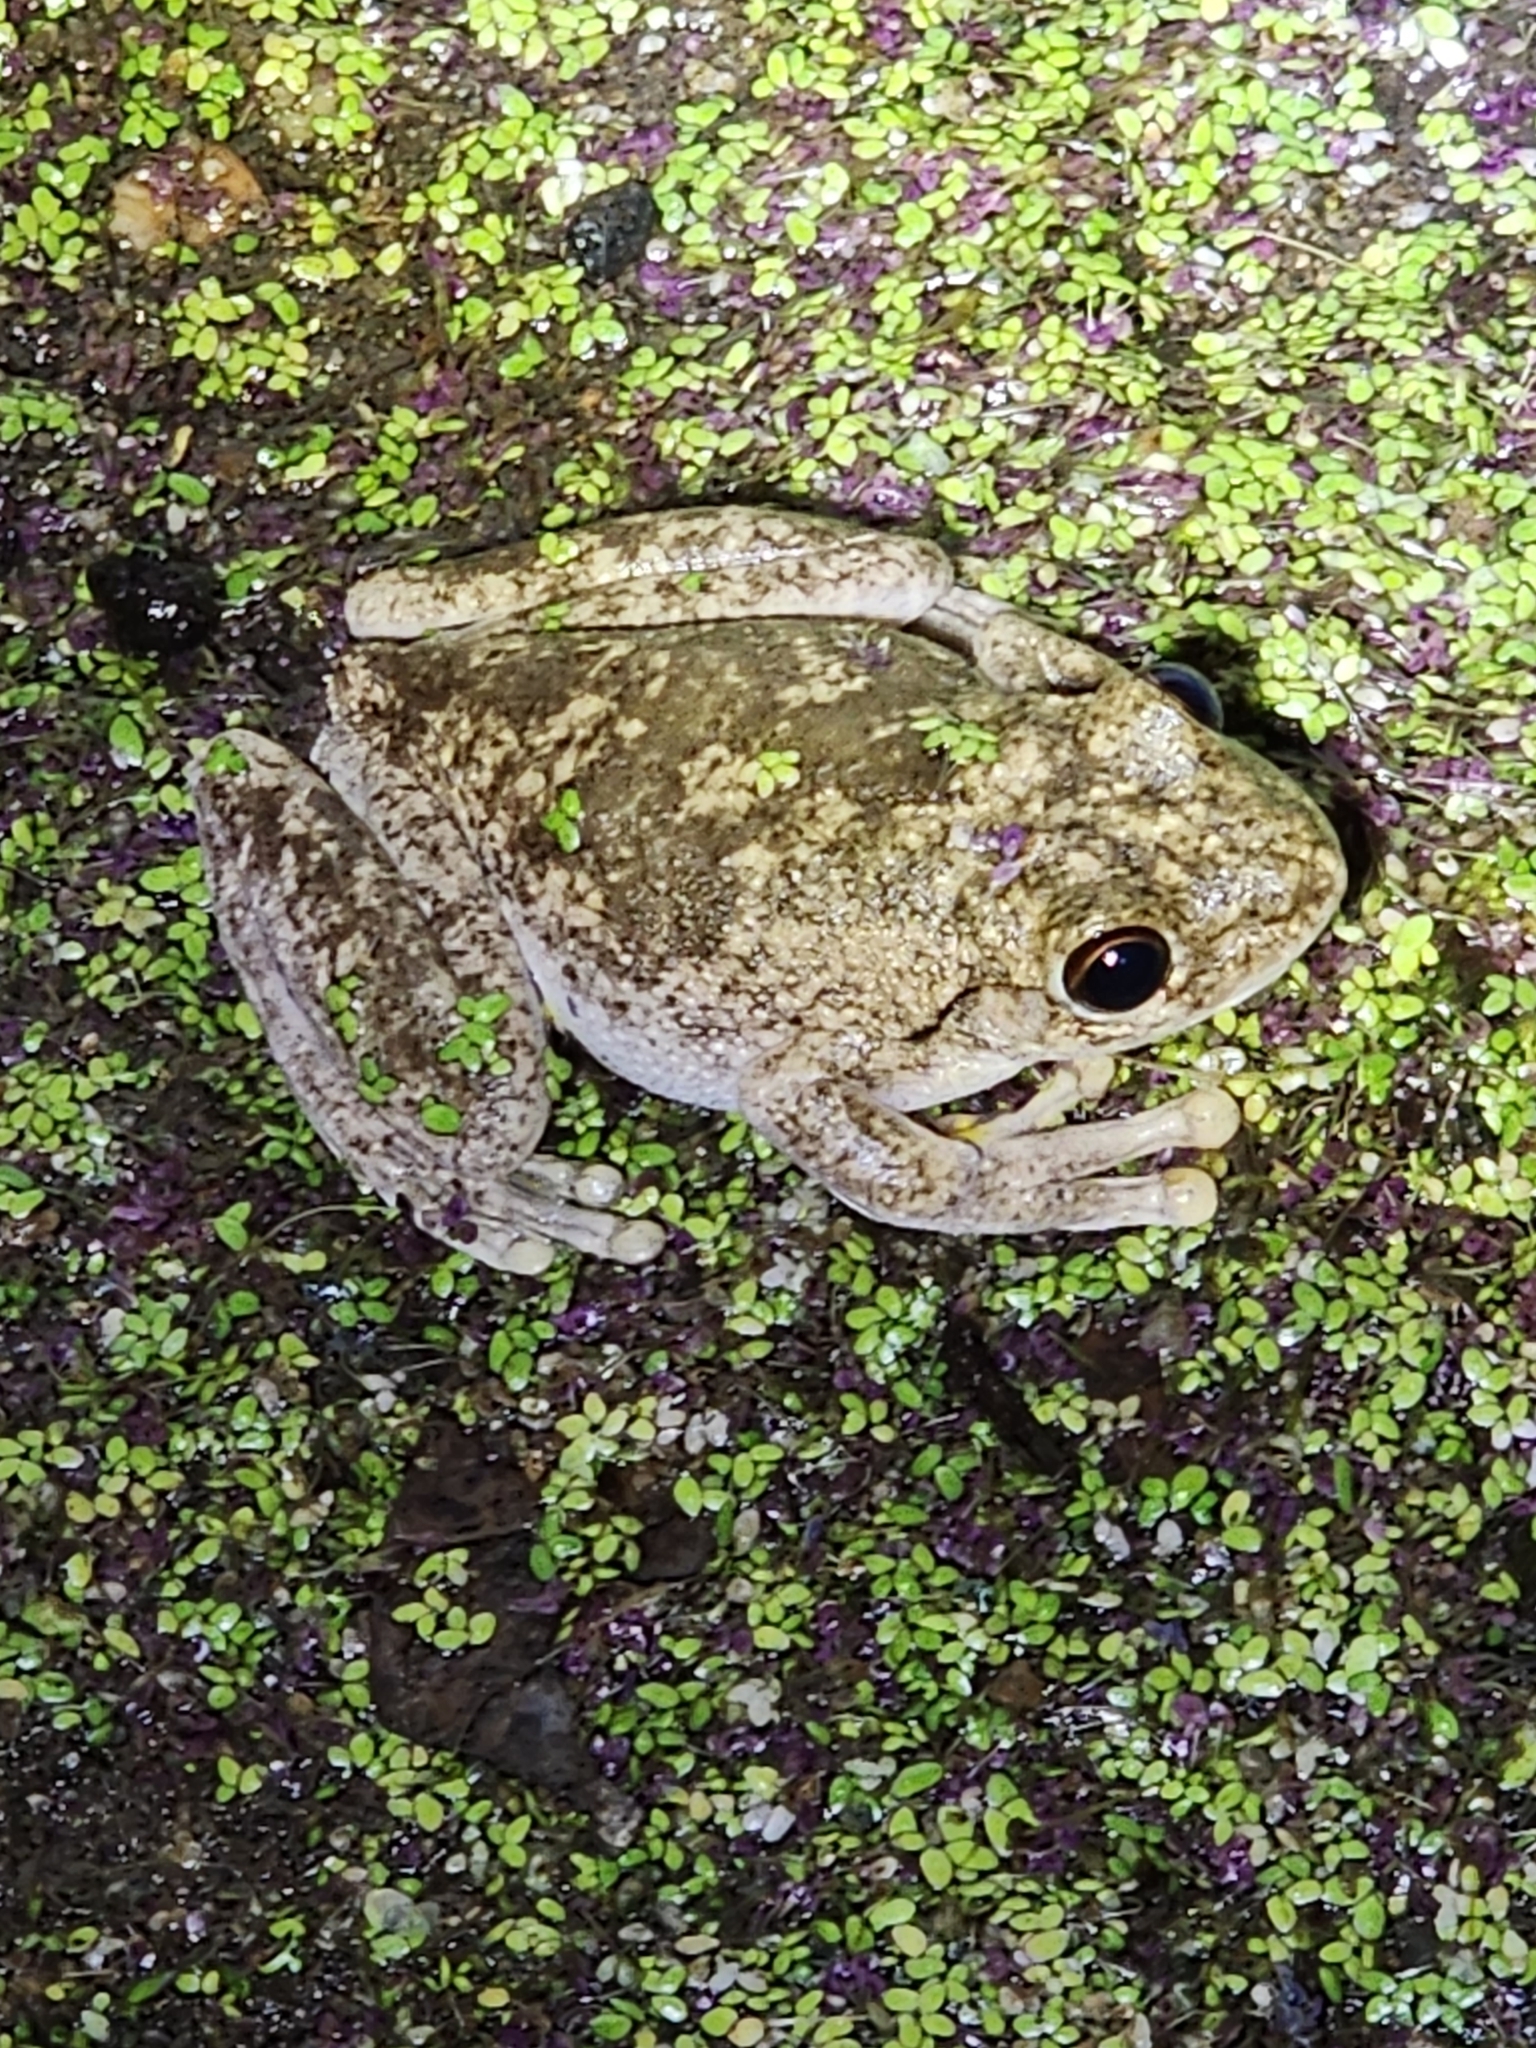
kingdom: Animalia
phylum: Chordata
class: Amphibia
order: Anura
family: Pelodryadidae
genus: Litoria
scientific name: Litoria rothii
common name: Roth’s tree frog
